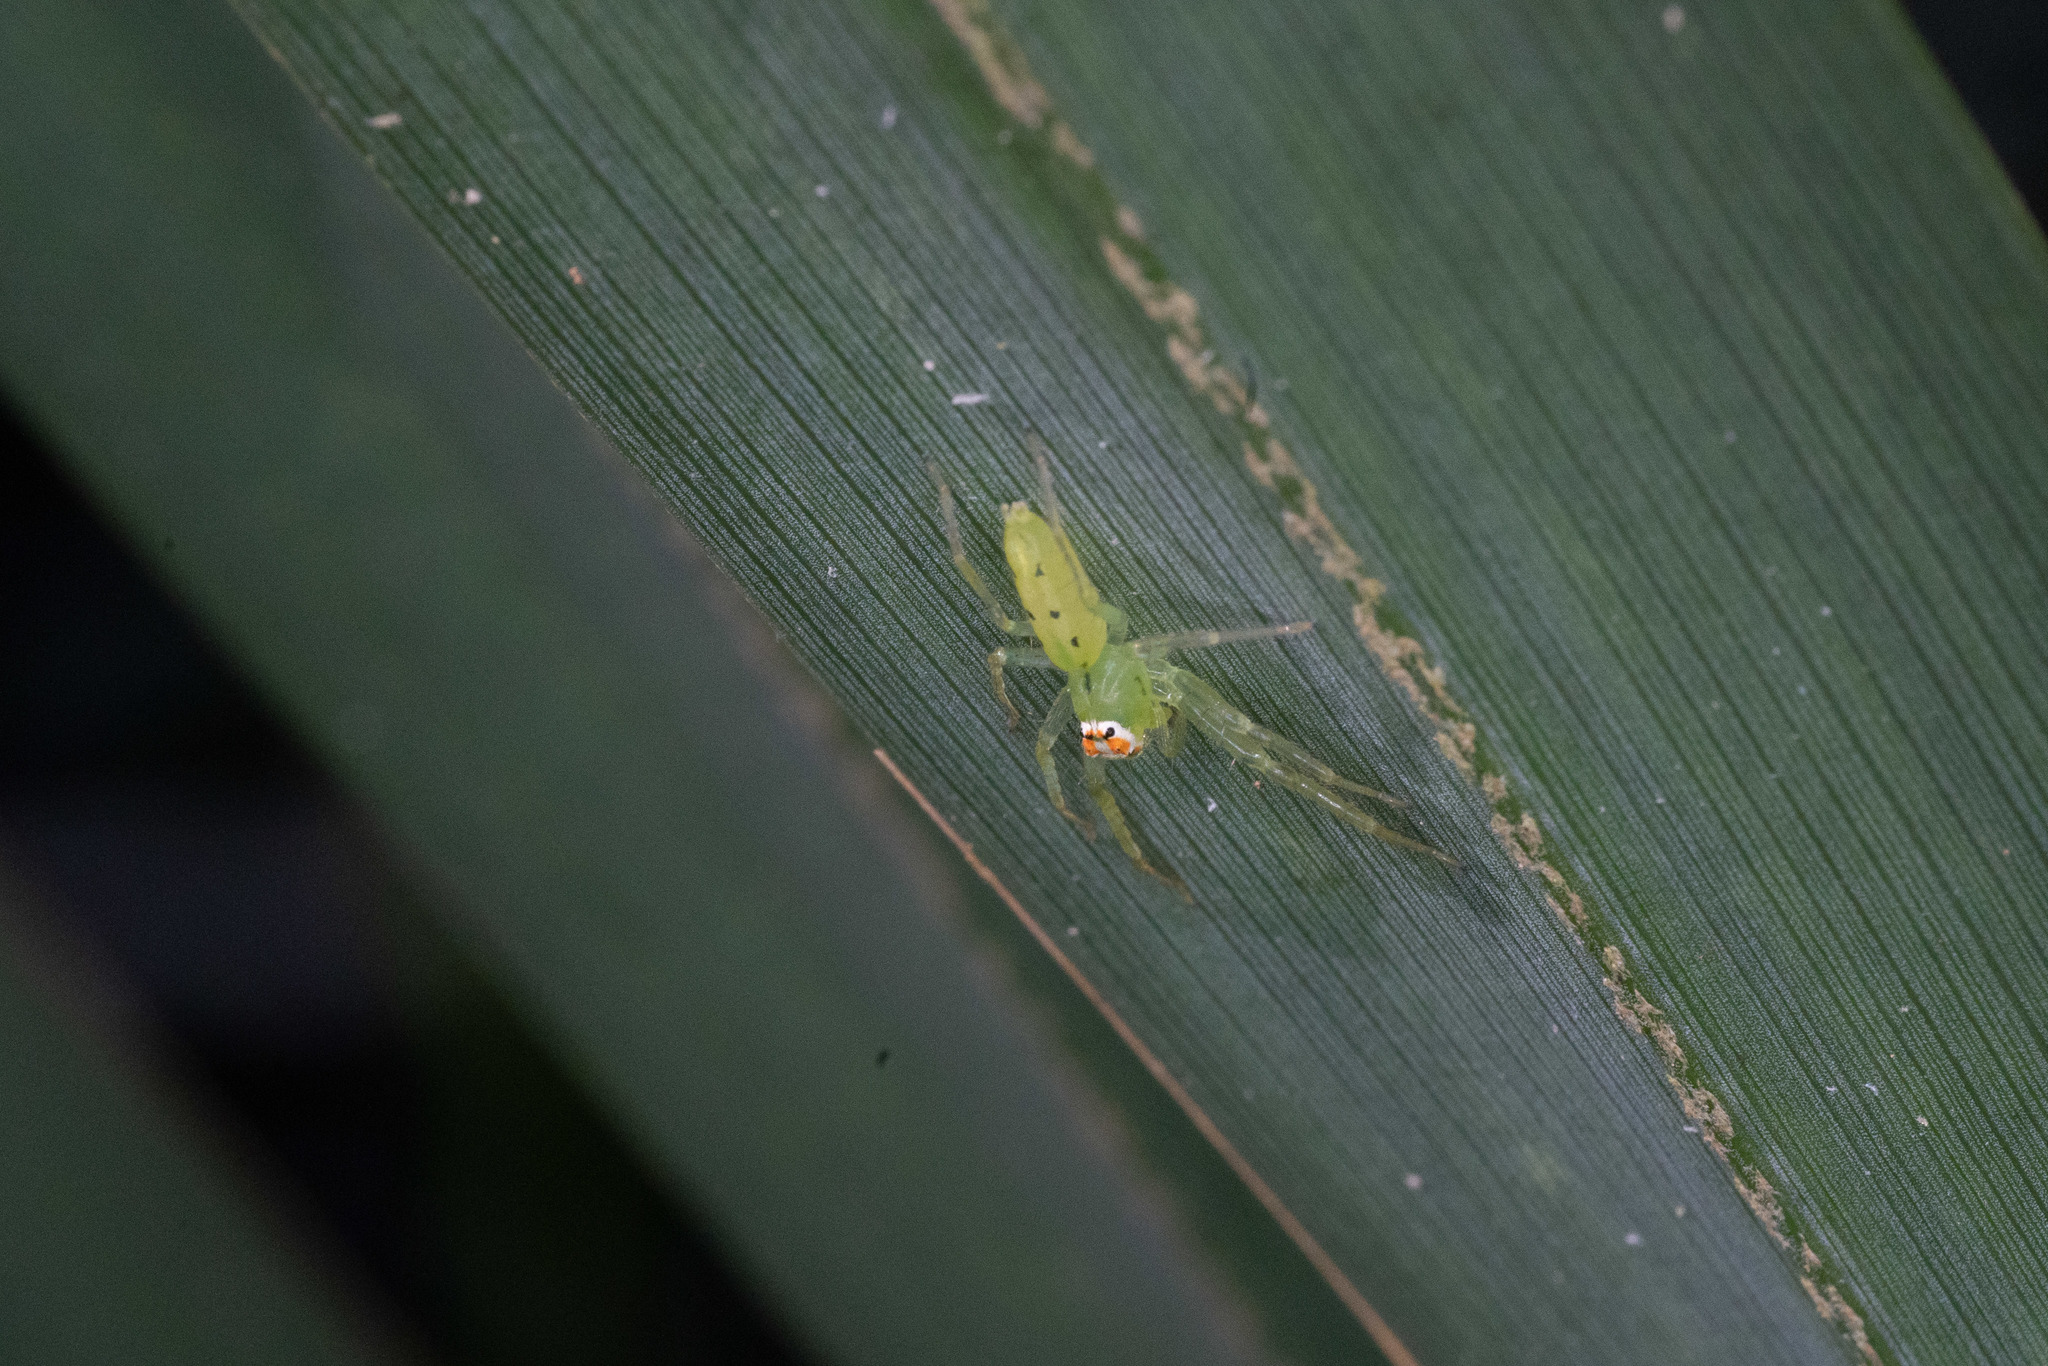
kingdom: Animalia
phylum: Arthropoda
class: Arachnida
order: Araneae
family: Salticidae
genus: Lyssomanes
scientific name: Lyssomanes viridis
